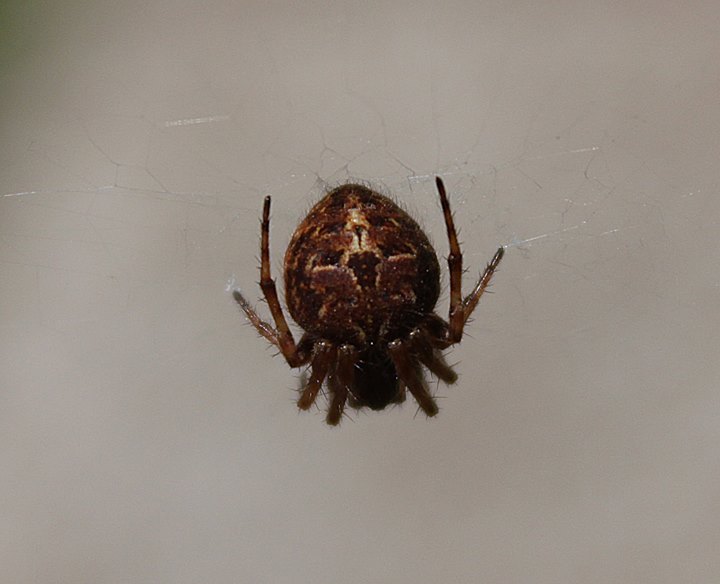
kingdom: Animalia
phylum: Arthropoda
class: Arachnida
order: Araneae
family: Araneidae
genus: Agalenatea
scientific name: Agalenatea redii
